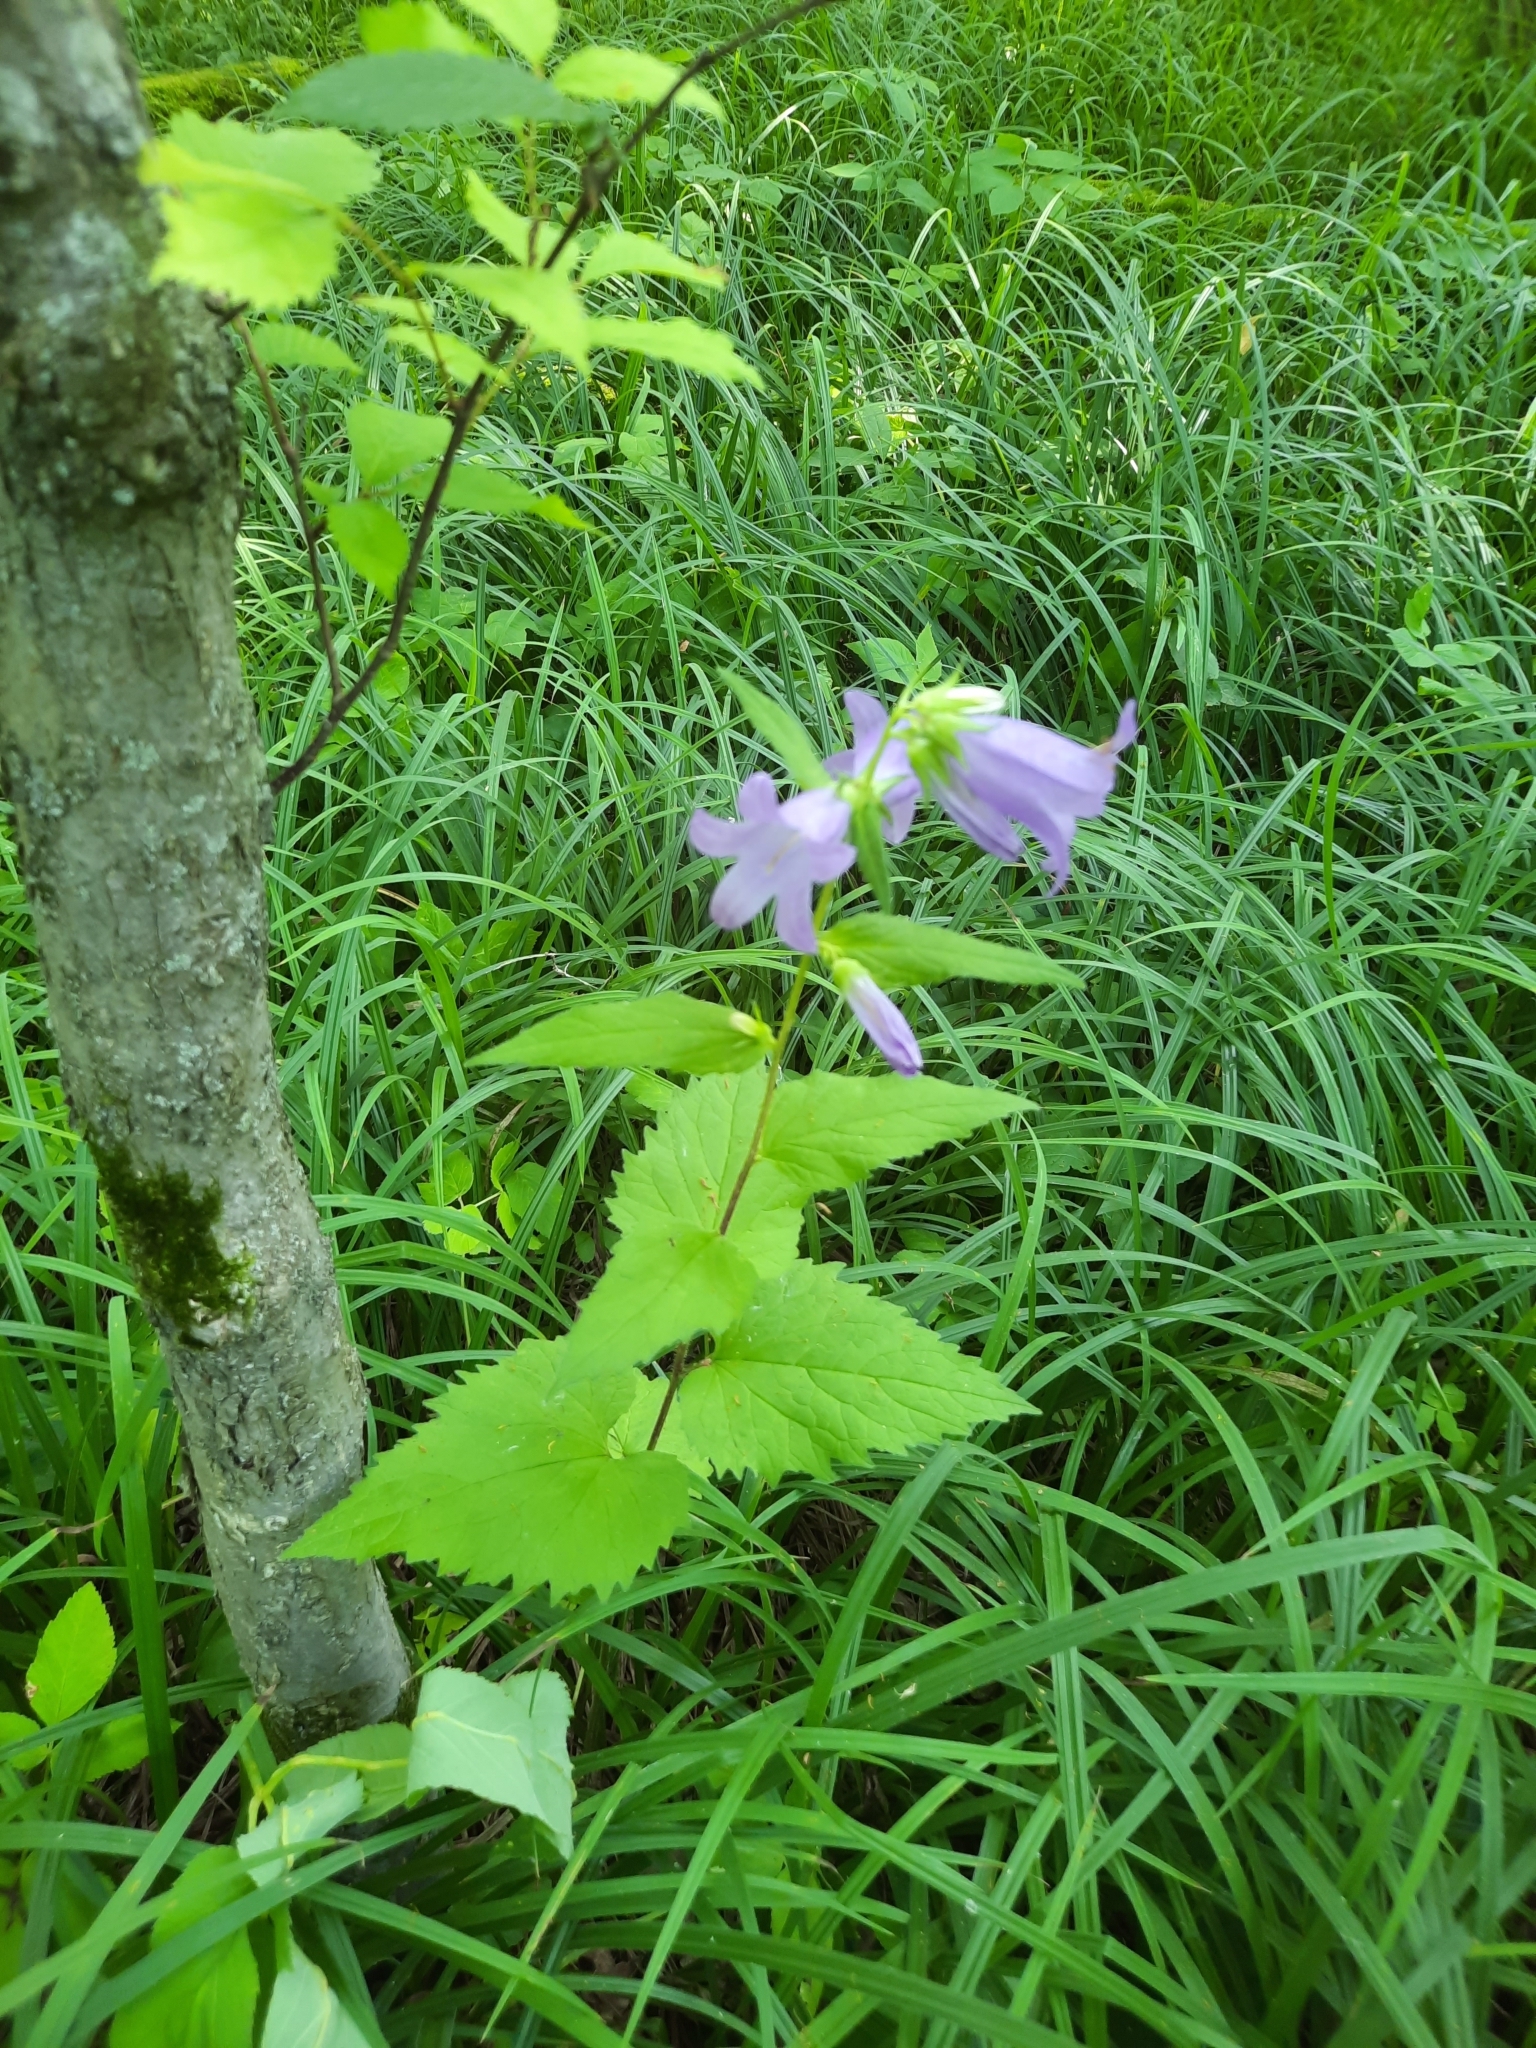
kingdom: Plantae
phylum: Tracheophyta
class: Magnoliopsida
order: Asterales
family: Campanulaceae
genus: Campanula
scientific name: Campanula trachelium
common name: Nettle-leaved bellflower
